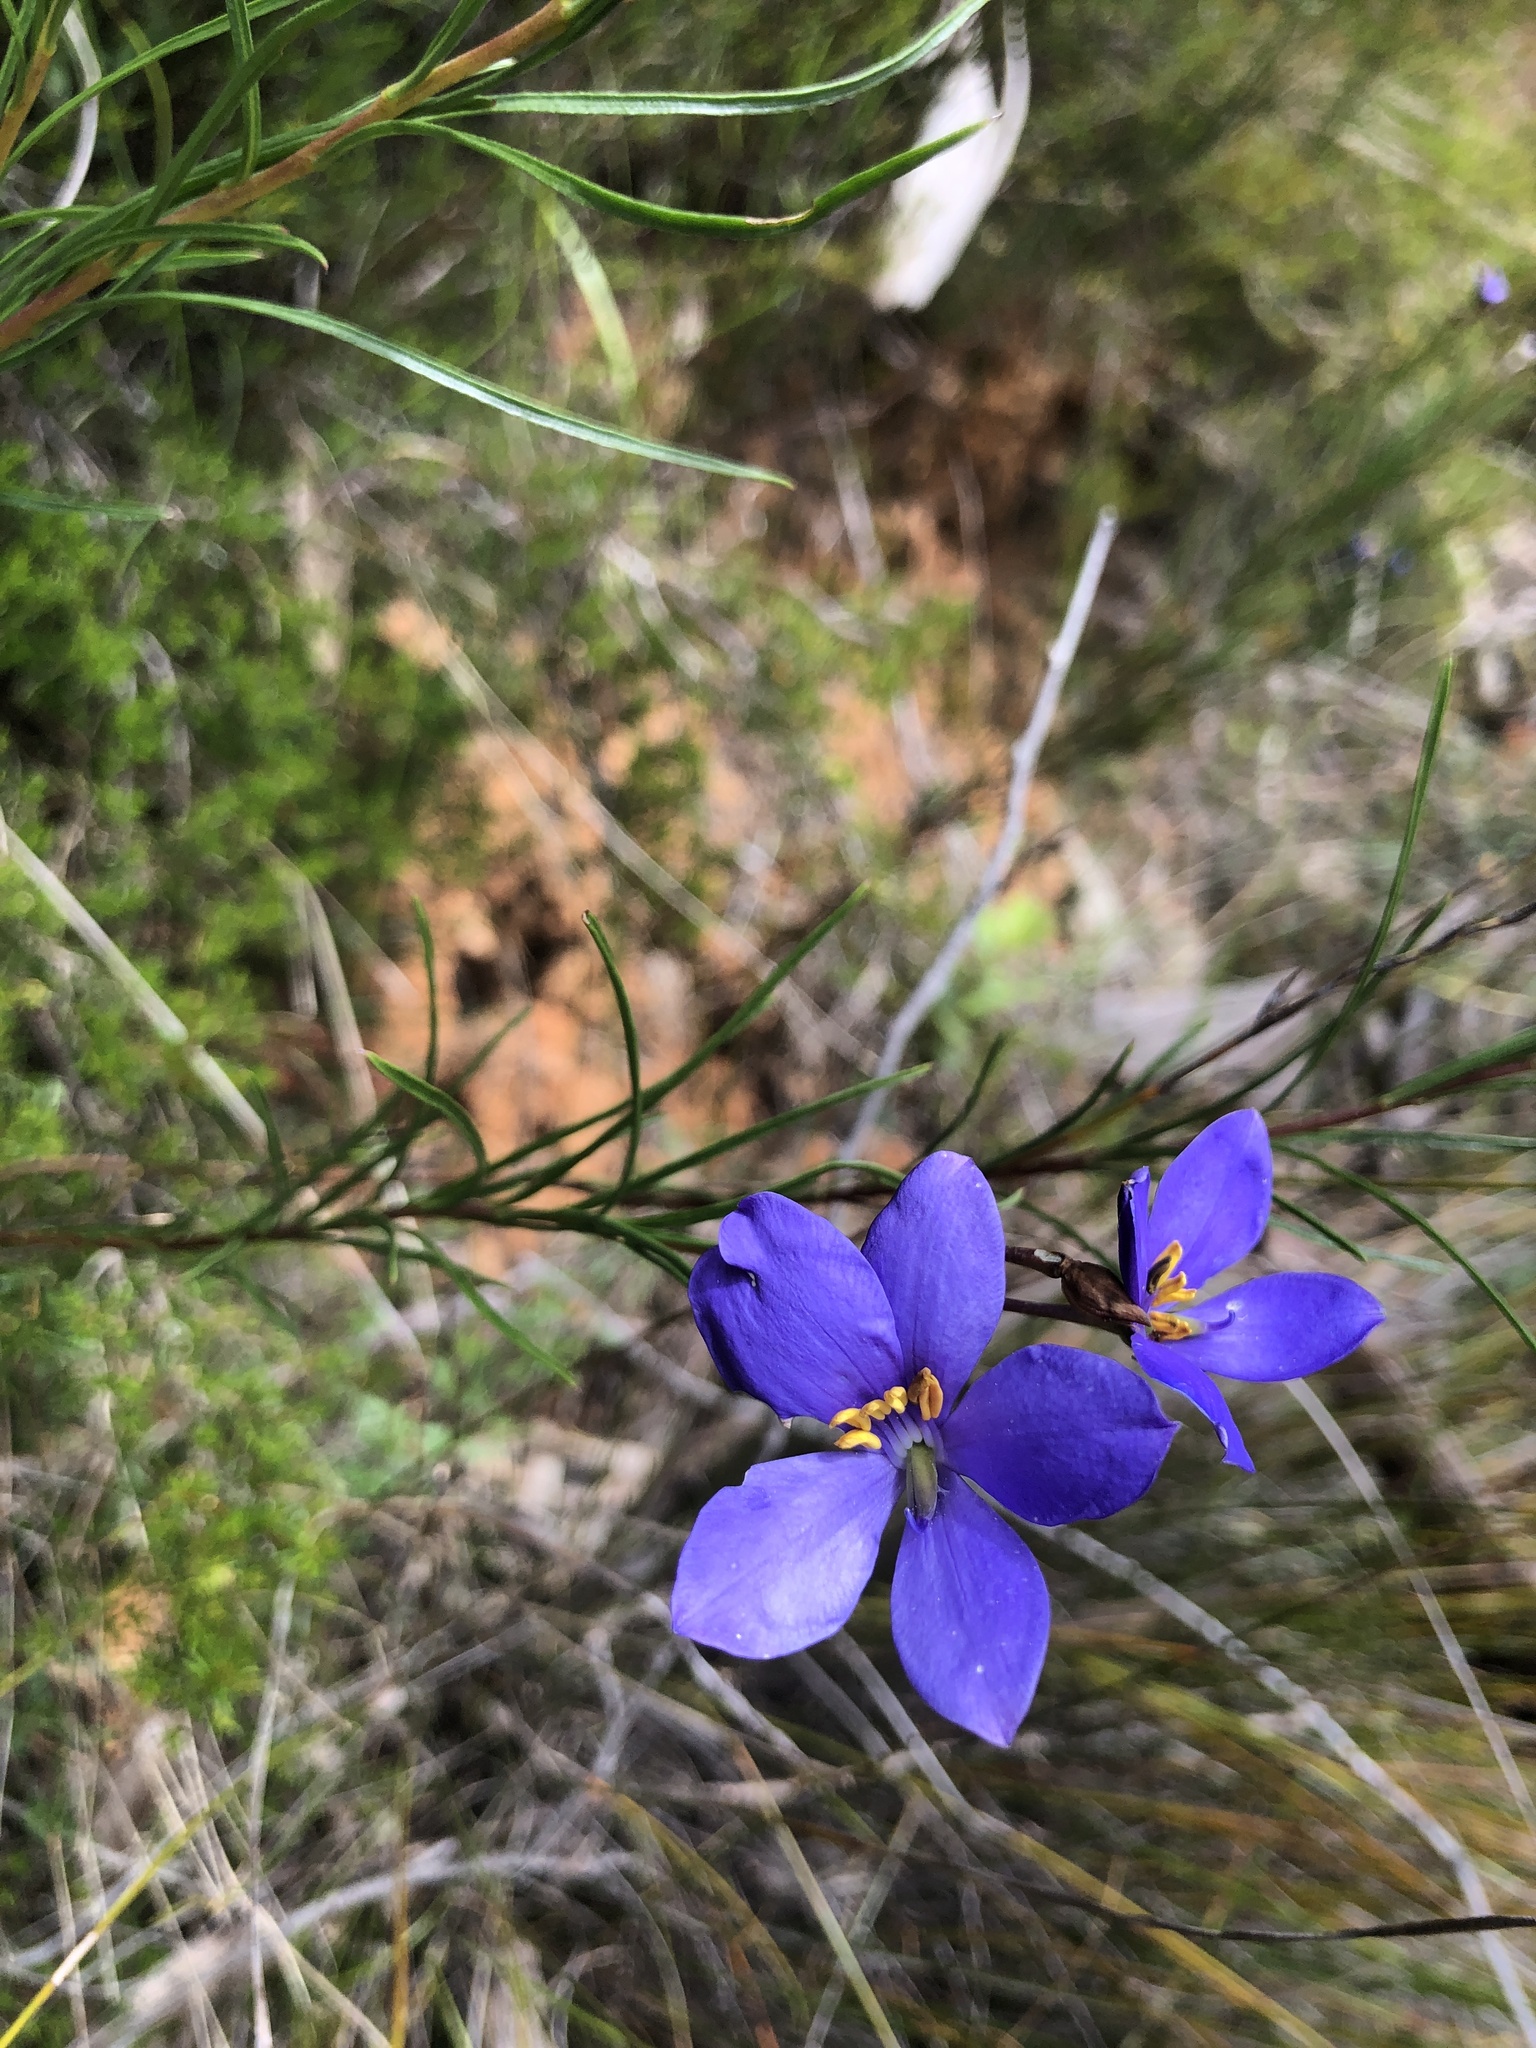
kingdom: Plantae
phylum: Tracheophyta
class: Magnoliopsida
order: Apiales
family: Pittosporaceae
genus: Cheiranthera
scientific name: Cheiranthera alternifolia
